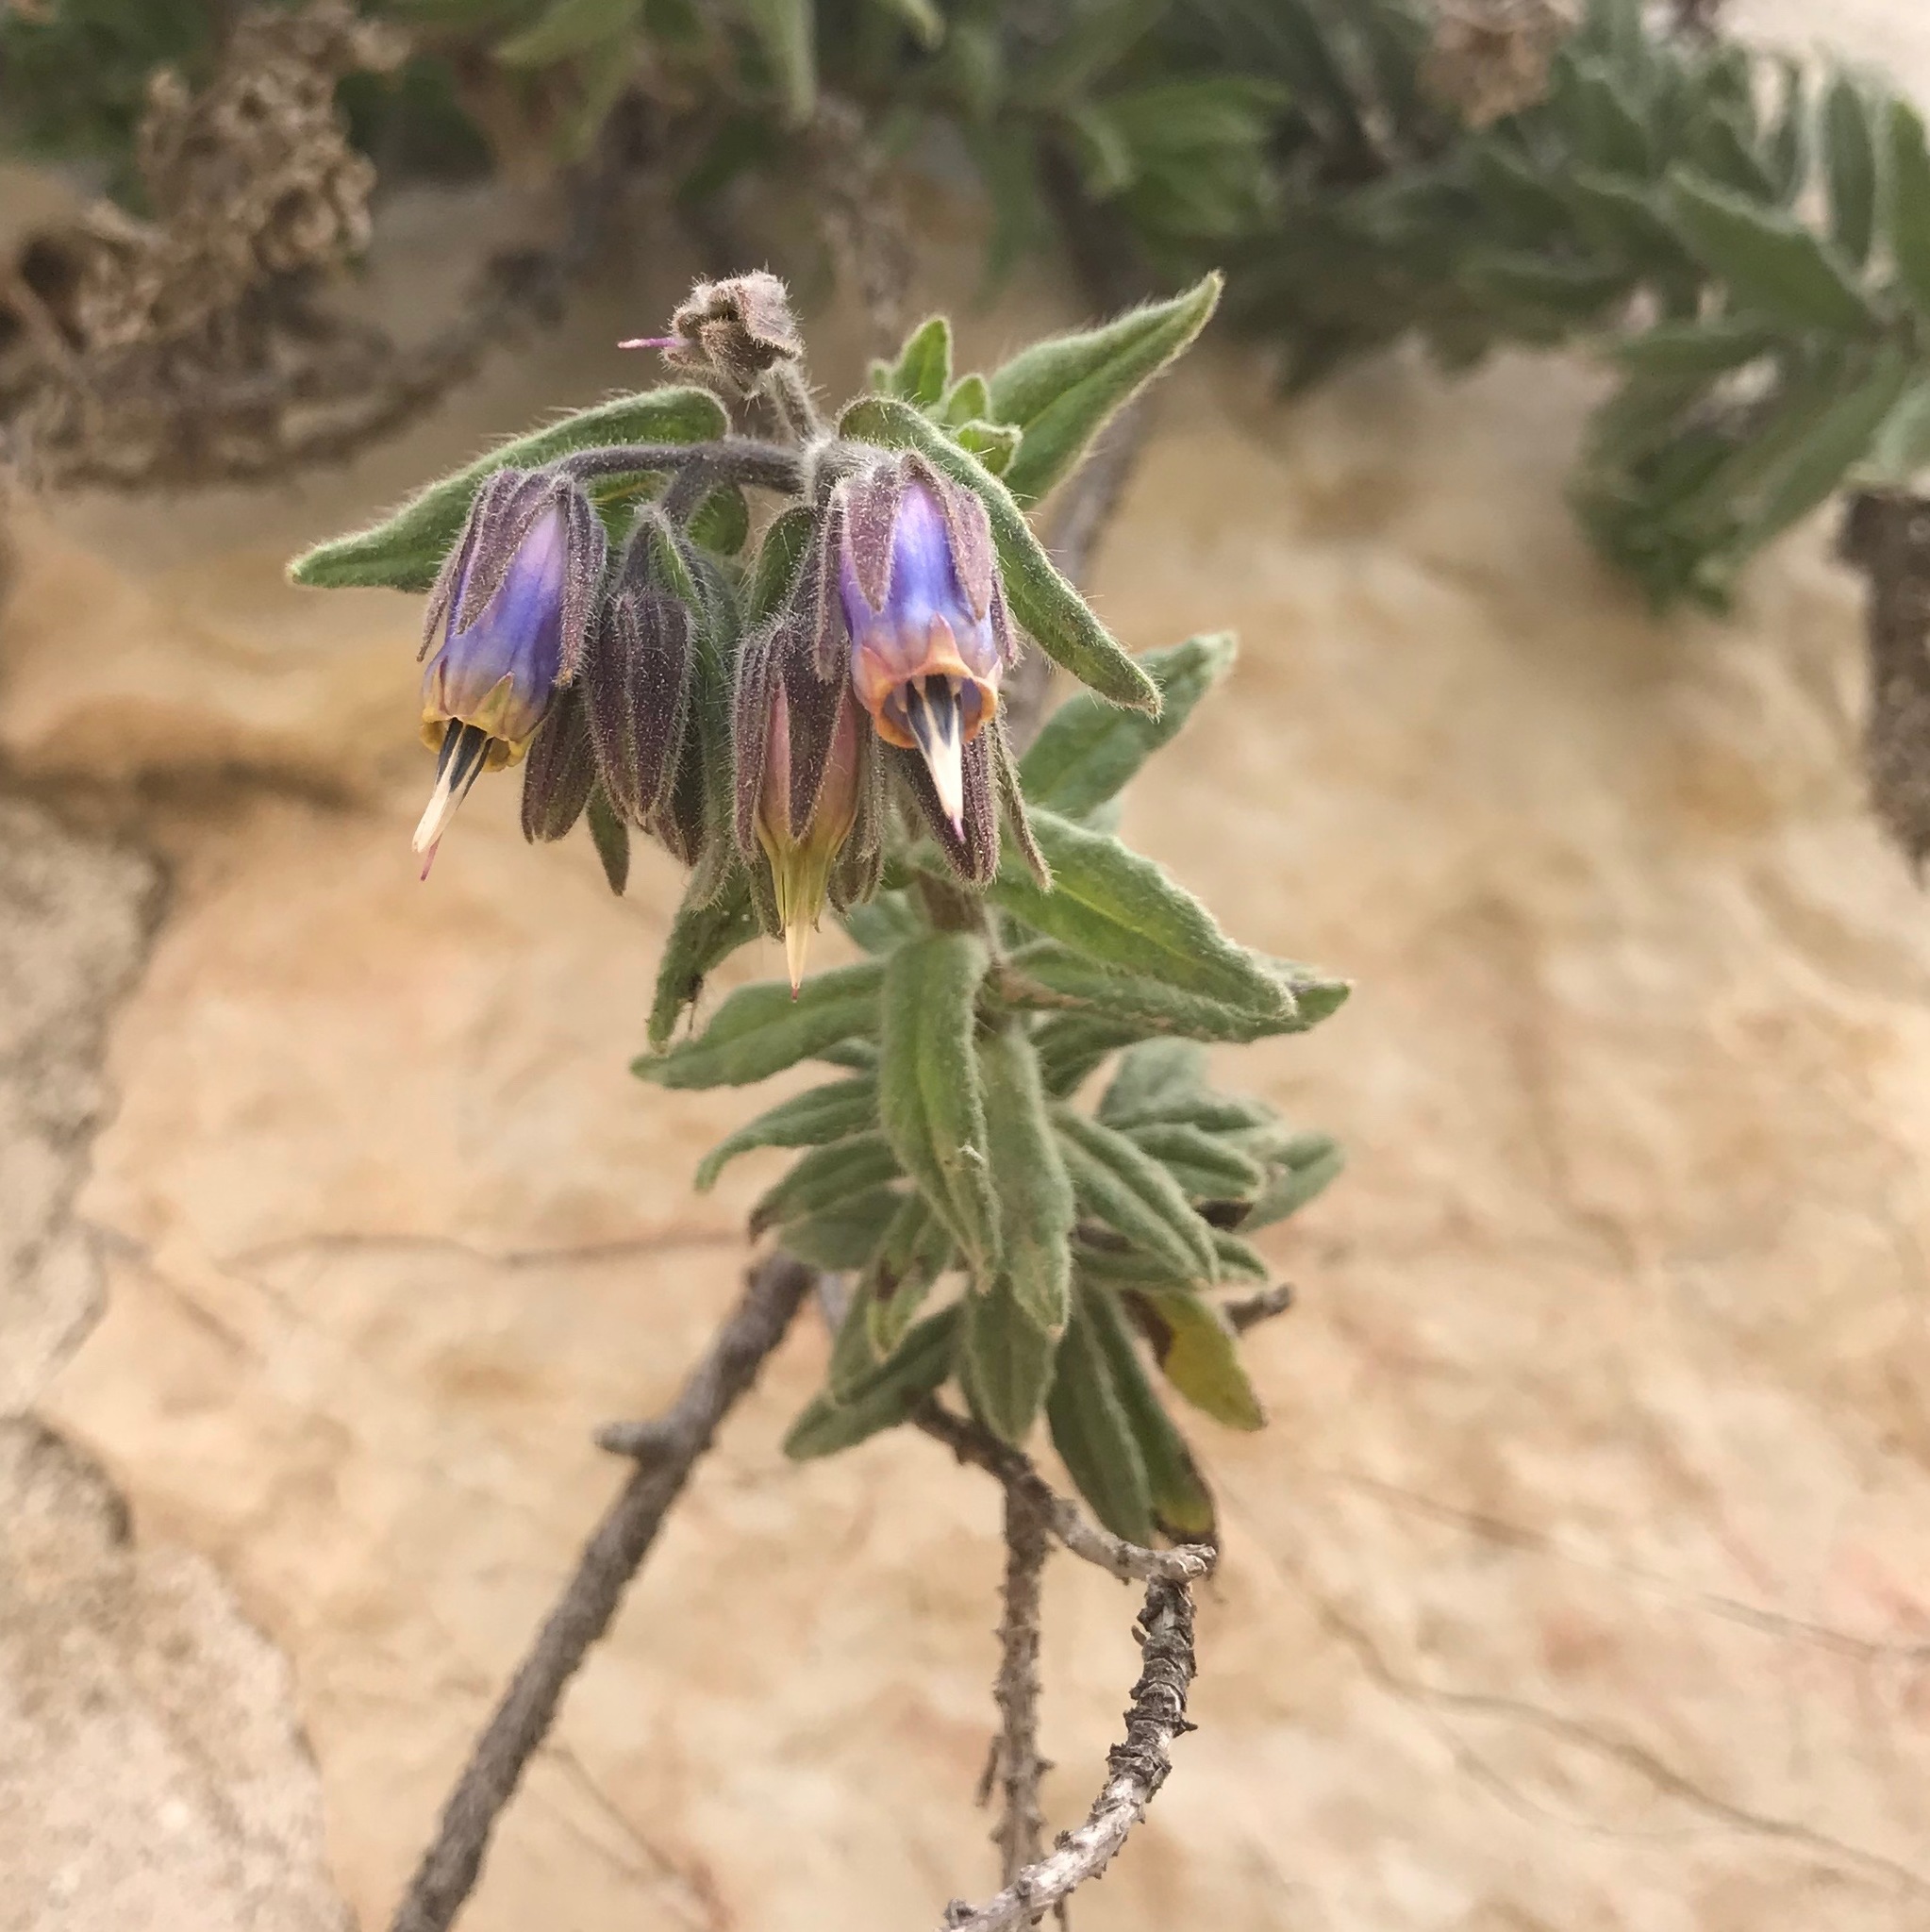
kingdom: Plantae
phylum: Tracheophyta
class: Magnoliopsida
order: Boraginales
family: Boraginaceae
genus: Podonosma
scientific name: Podonosma orientalis
